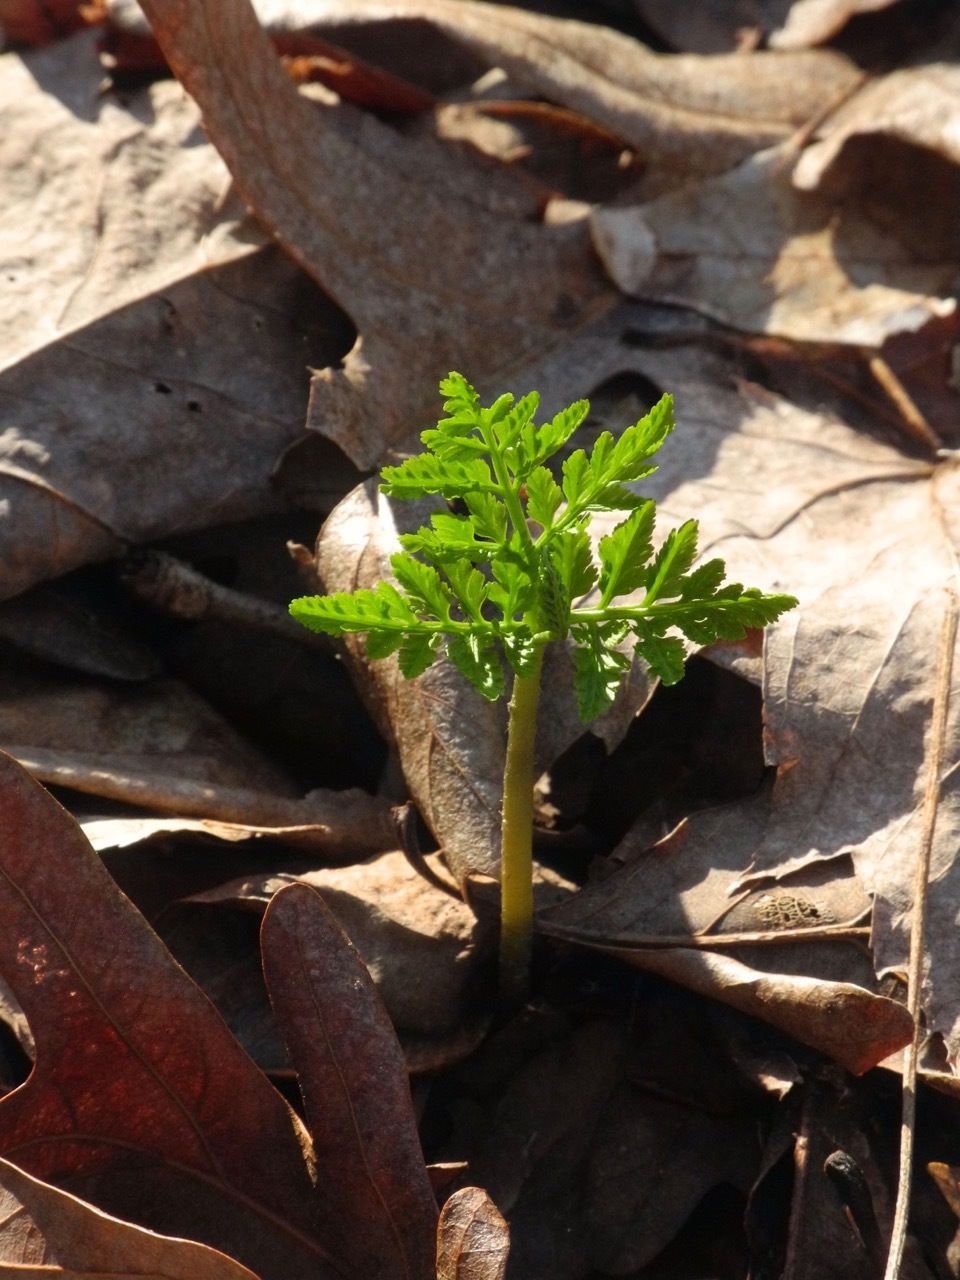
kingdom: Plantae
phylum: Tracheophyta
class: Polypodiopsida
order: Ophioglossales
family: Ophioglossaceae
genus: Botrypus
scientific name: Botrypus virginianus
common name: Common grapefern
